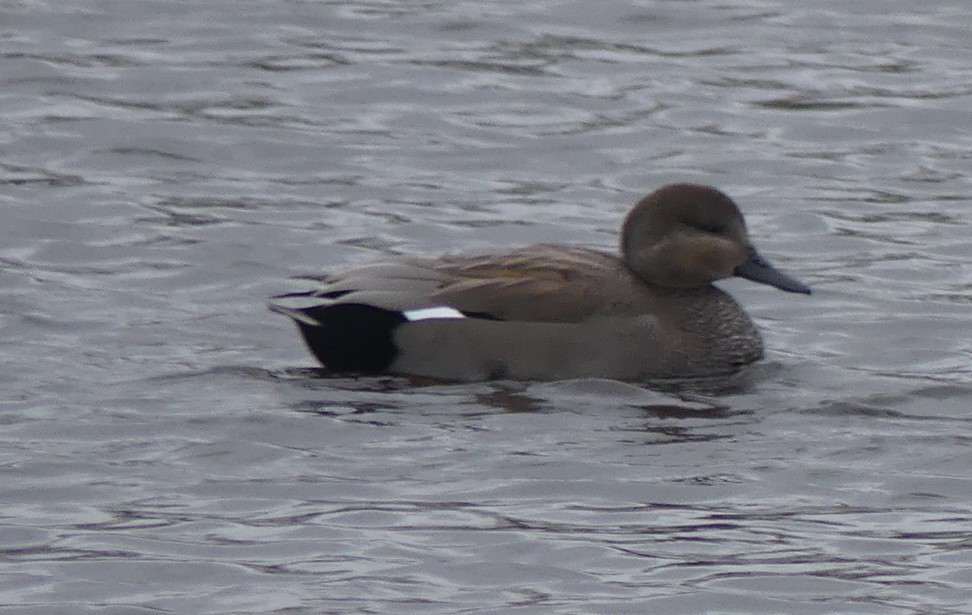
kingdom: Animalia
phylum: Chordata
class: Aves
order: Anseriformes
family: Anatidae
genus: Mareca
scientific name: Mareca strepera
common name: Gadwall
